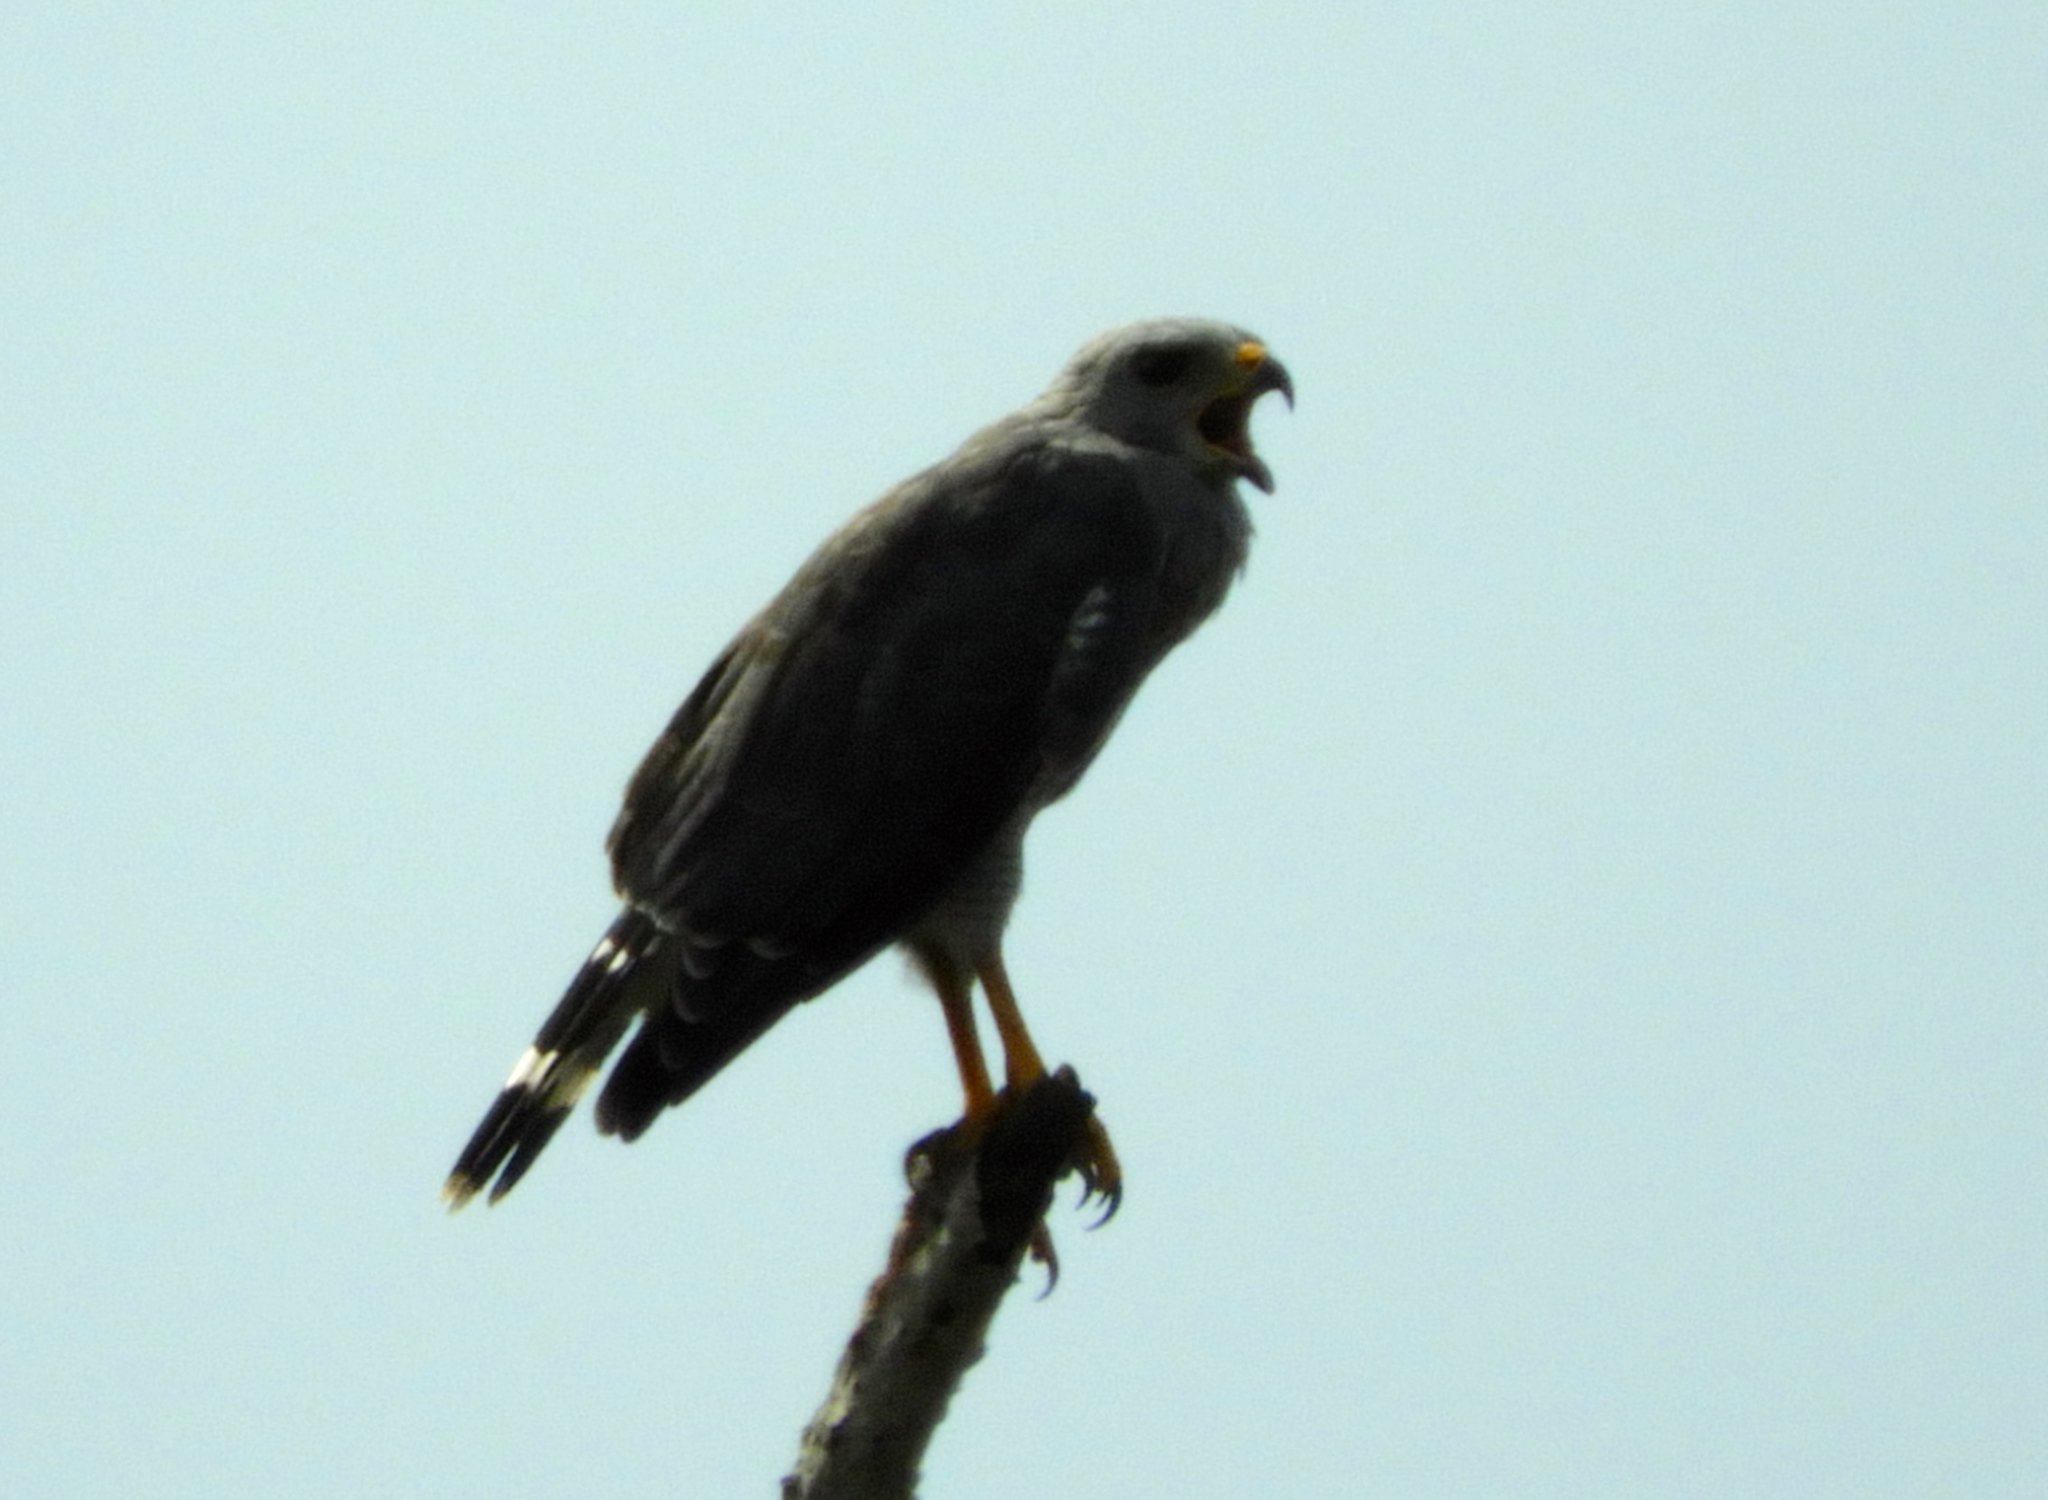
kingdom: Animalia
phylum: Chordata
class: Aves
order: Accipitriformes
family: Accipitridae
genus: Buteo
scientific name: Buteo nitidus
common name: Grey-lined hawk
